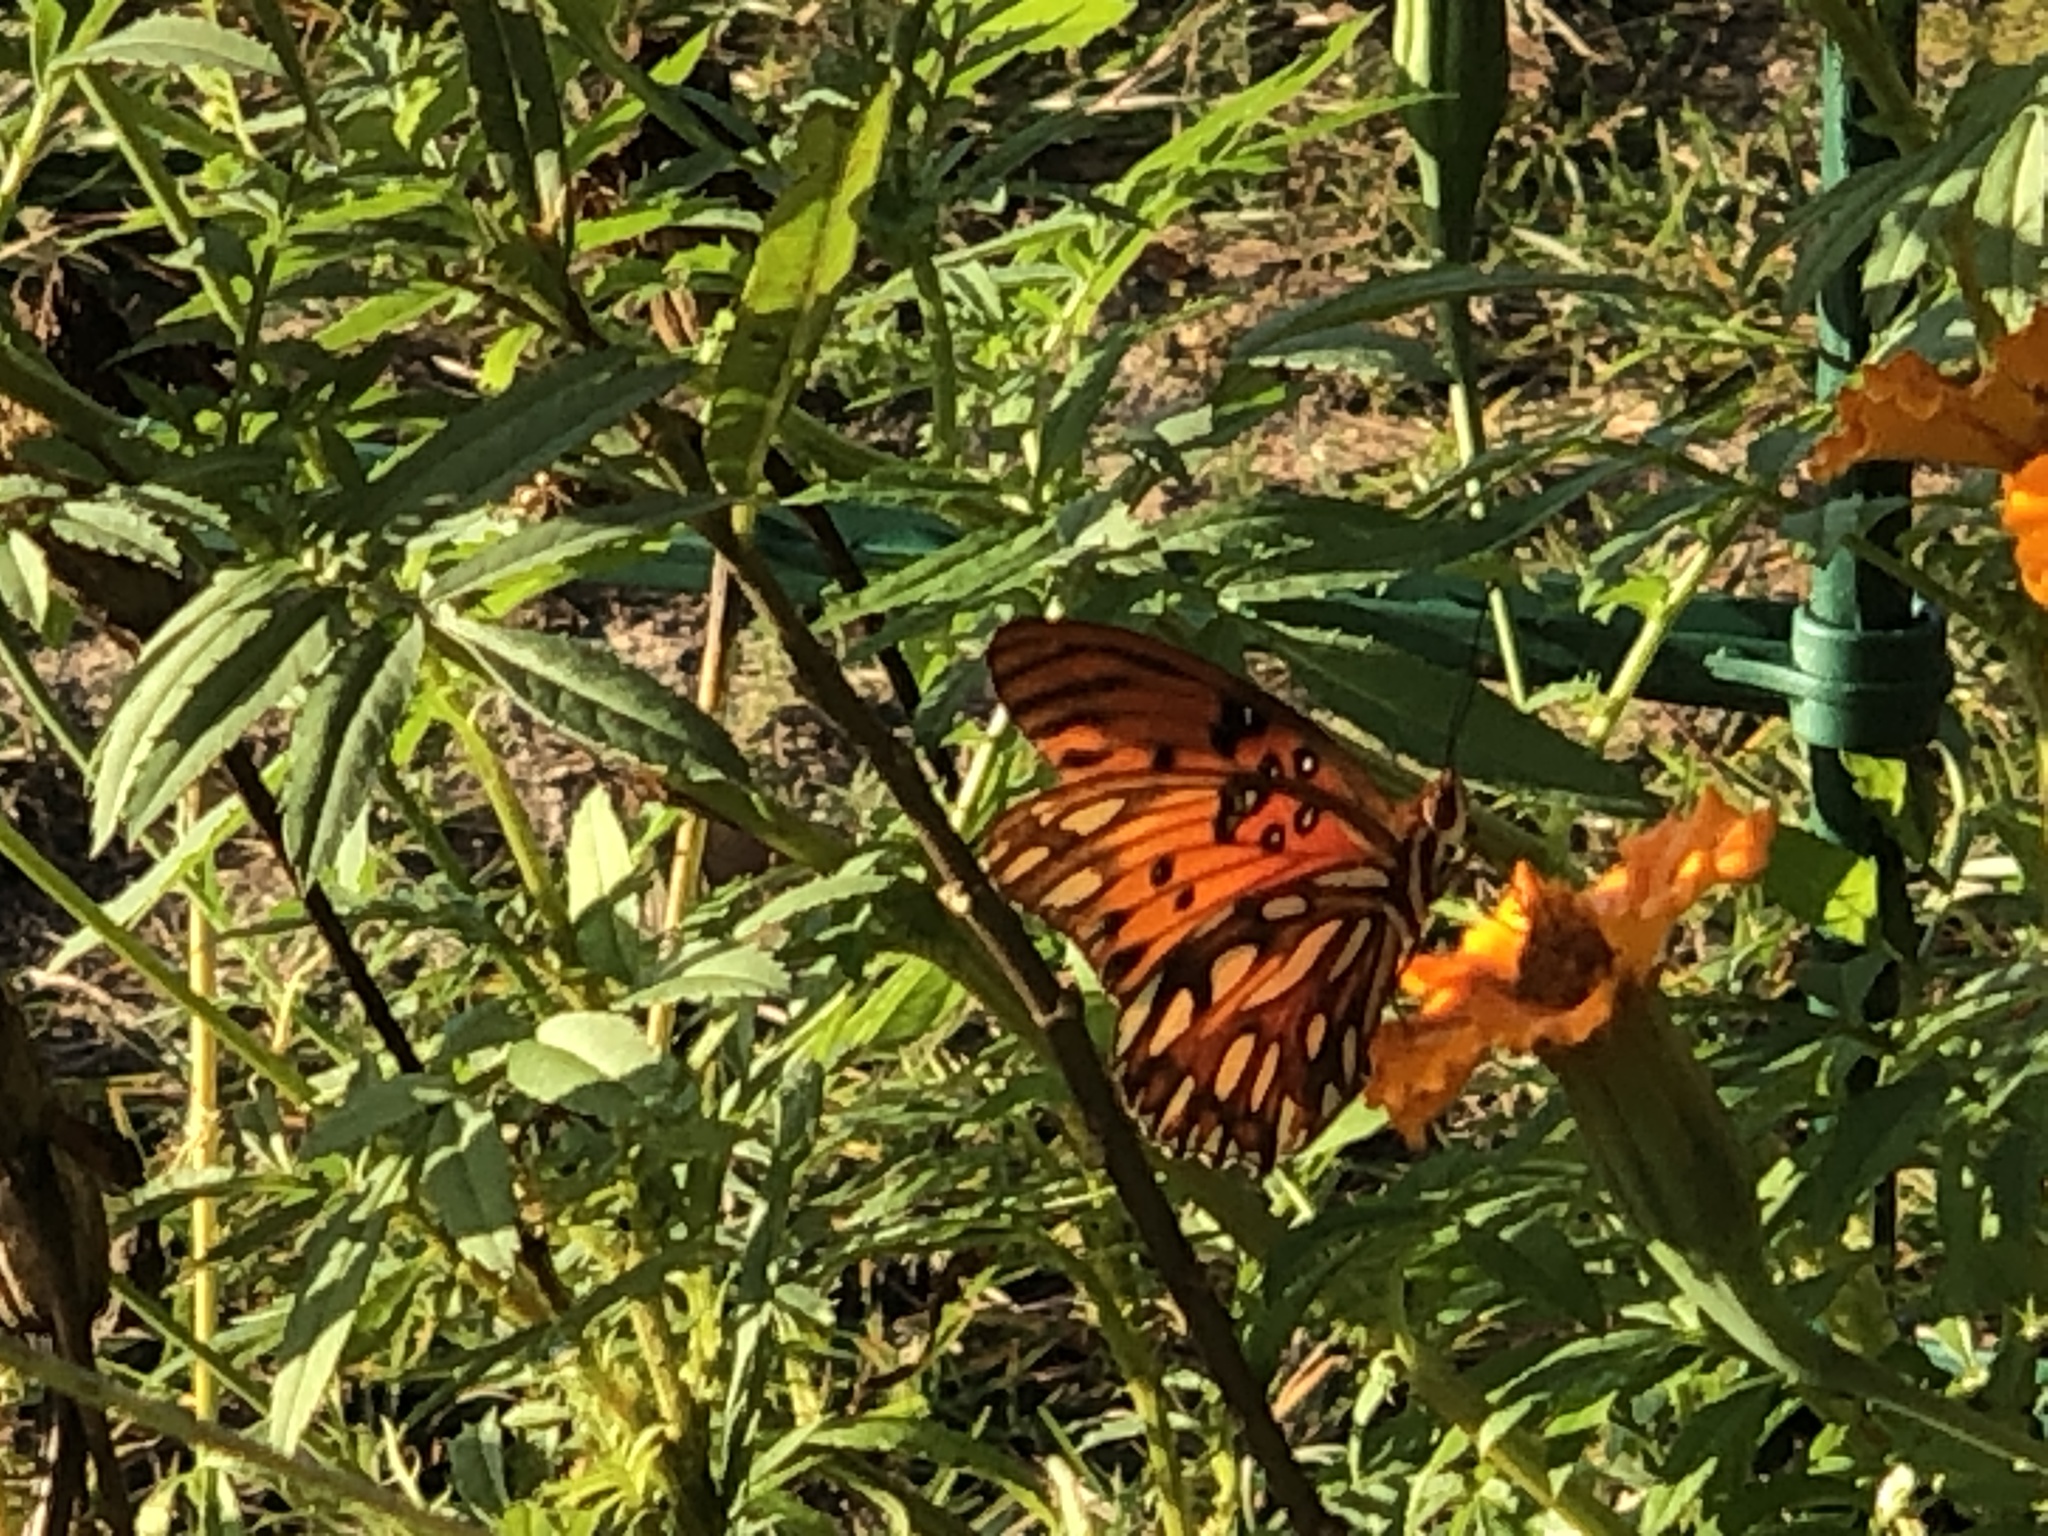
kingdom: Animalia
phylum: Arthropoda
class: Insecta
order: Lepidoptera
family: Nymphalidae
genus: Dione
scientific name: Dione vanillae
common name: Gulf fritillary
